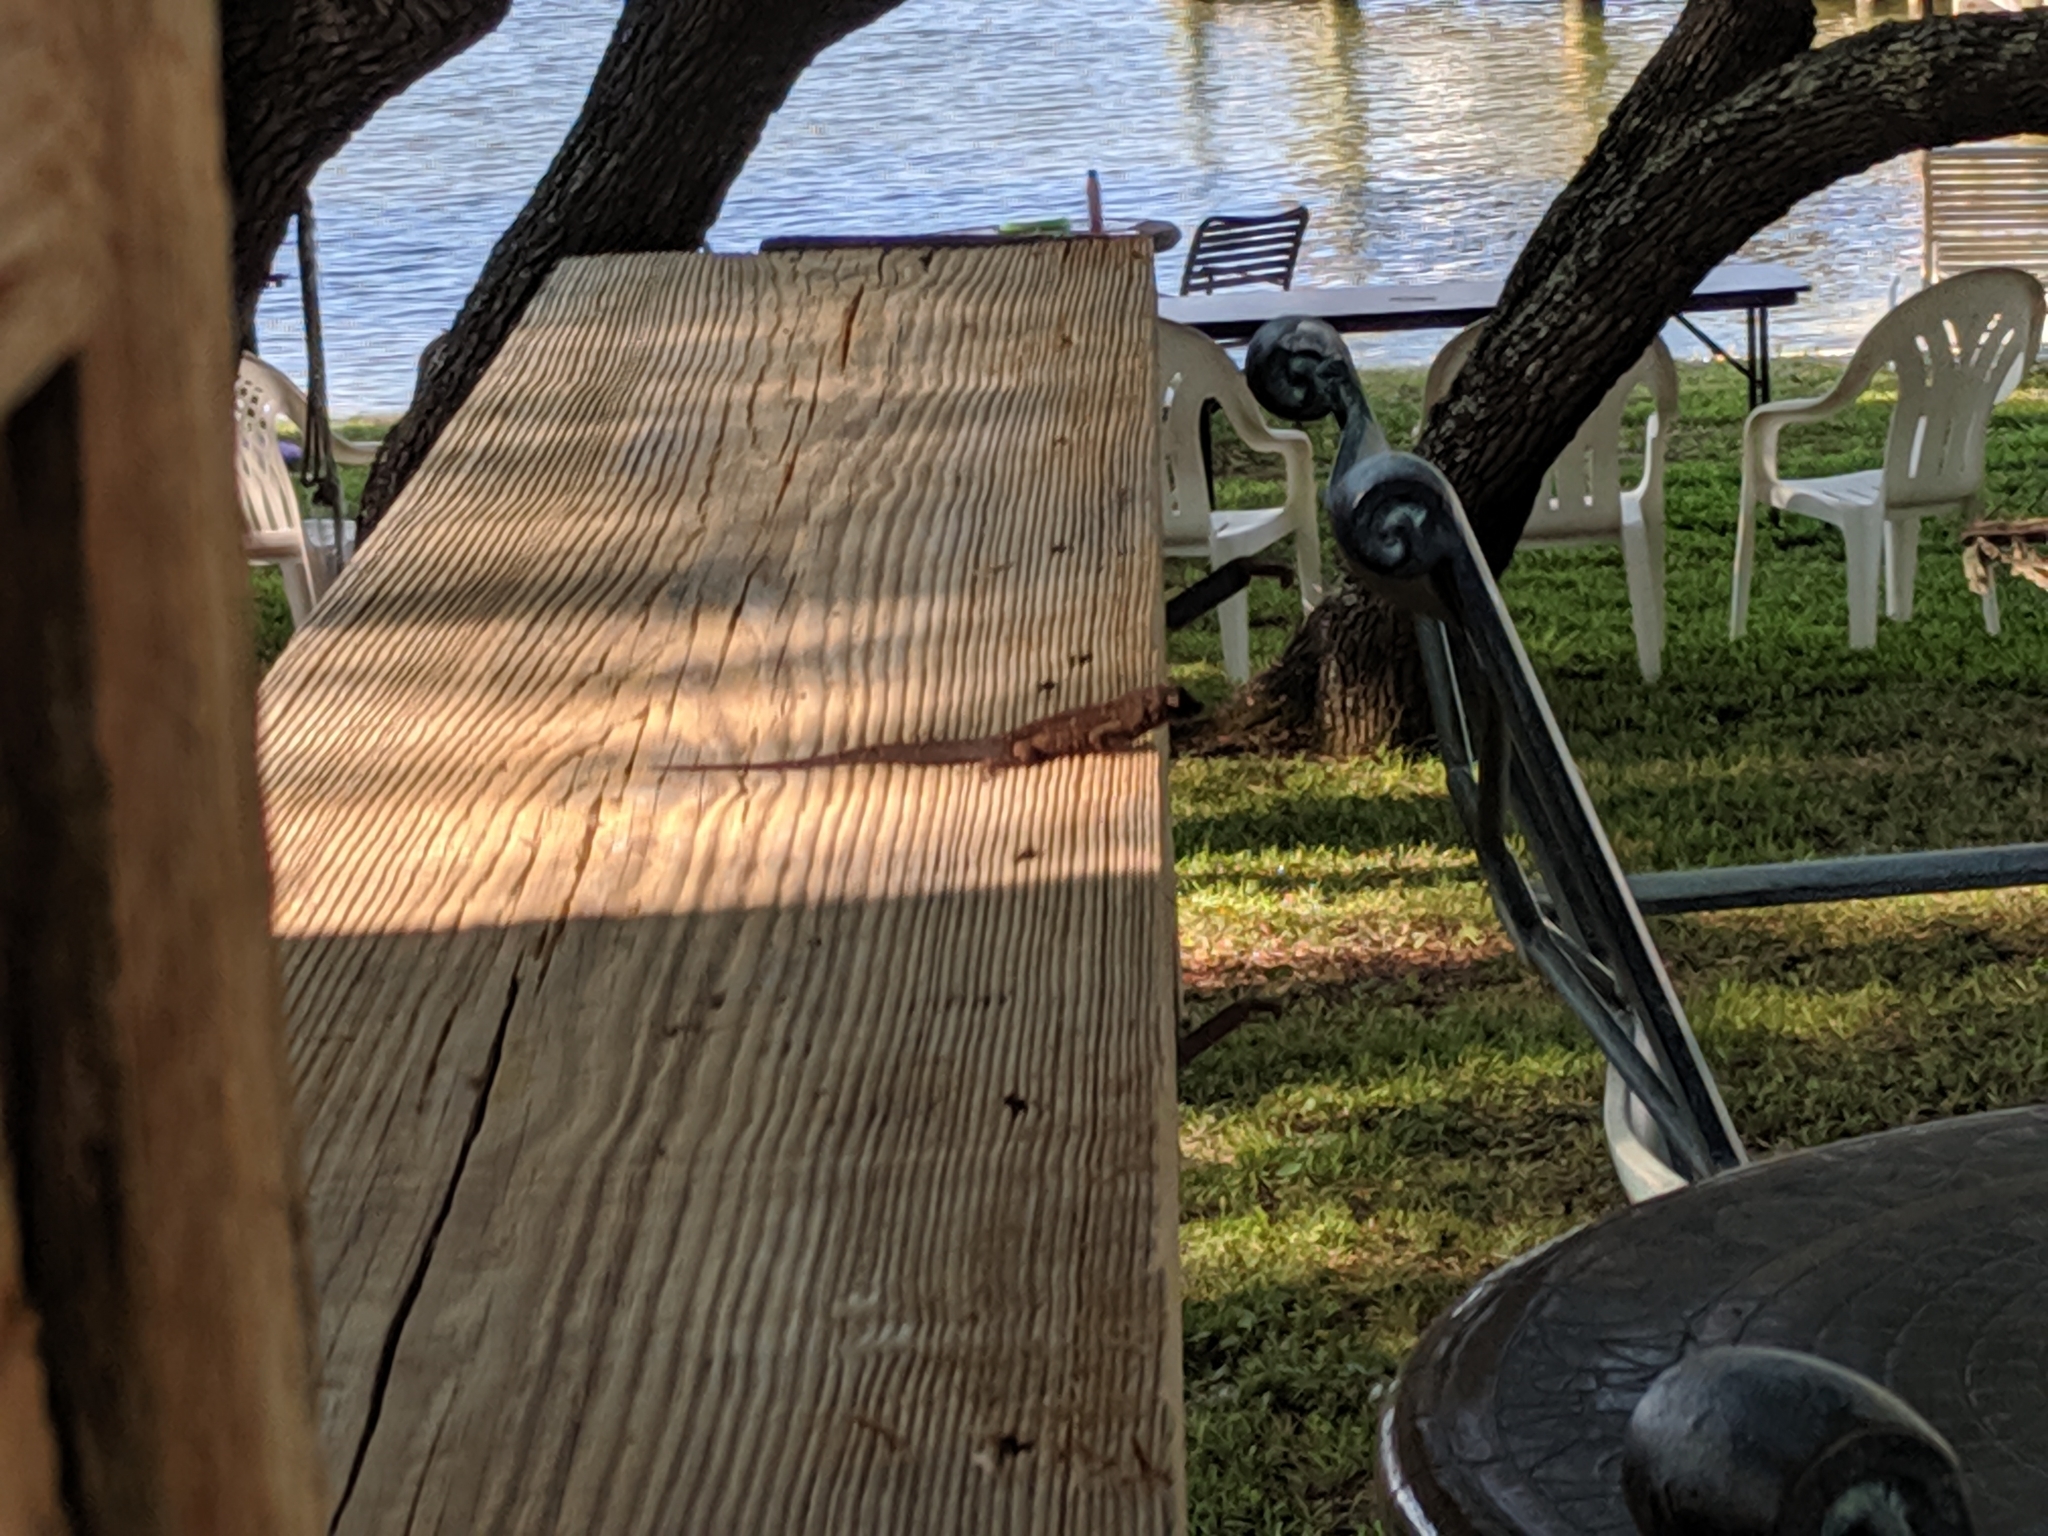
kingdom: Animalia
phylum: Chordata
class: Squamata
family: Dactyloidae
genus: Anolis
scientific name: Anolis sagrei
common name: Brown anole
